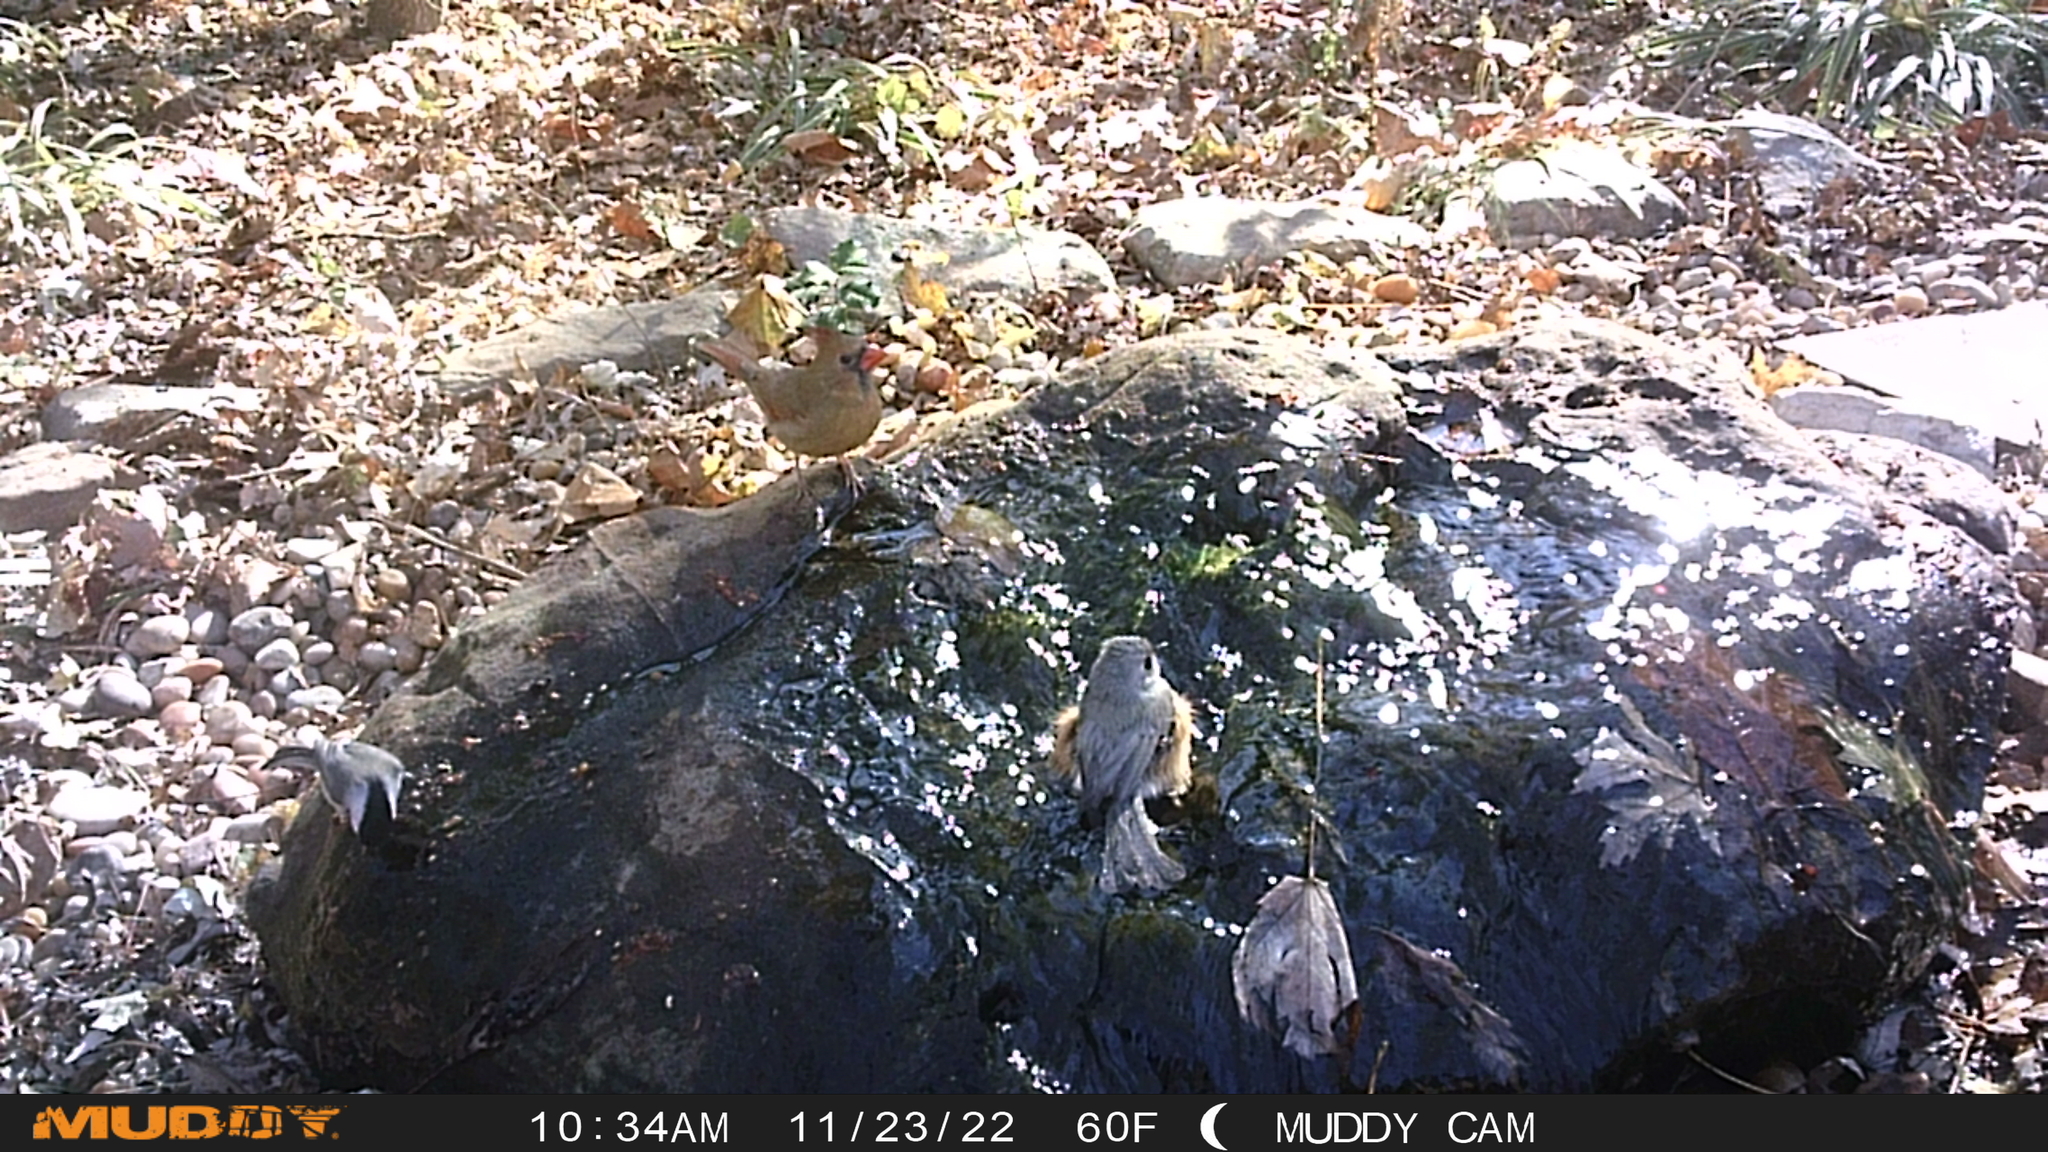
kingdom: Animalia
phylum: Chordata
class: Aves
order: Passeriformes
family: Paridae
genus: Baeolophus
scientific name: Baeolophus bicolor
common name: Tufted titmouse
